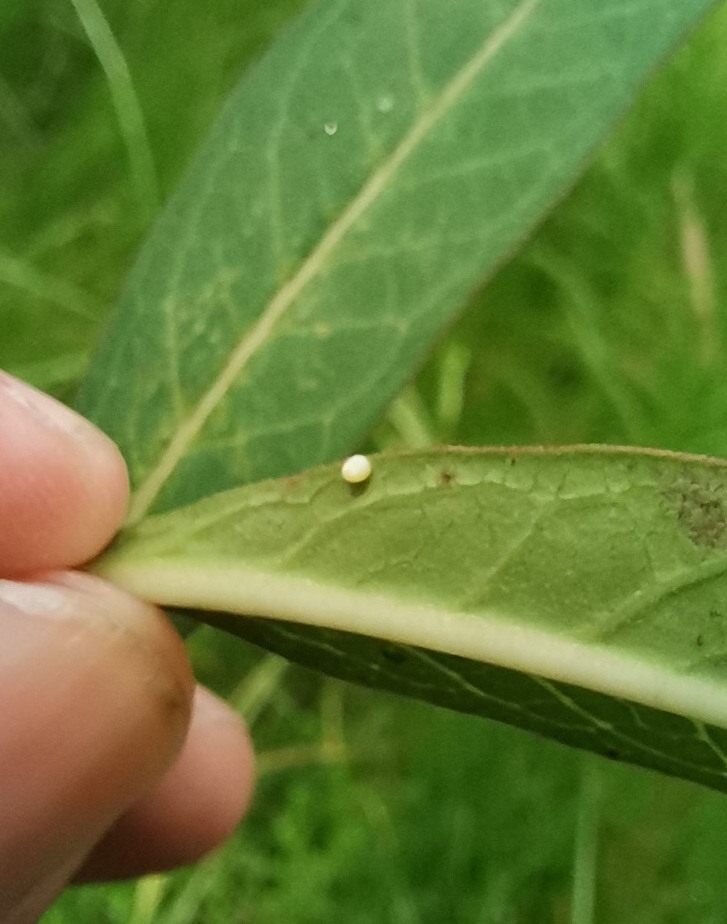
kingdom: Animalia
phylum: Arthropoda
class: Insecta
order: Lepidoptera
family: Nymphalidae
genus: Danaus
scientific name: Danaus plexippus
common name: Monarch
